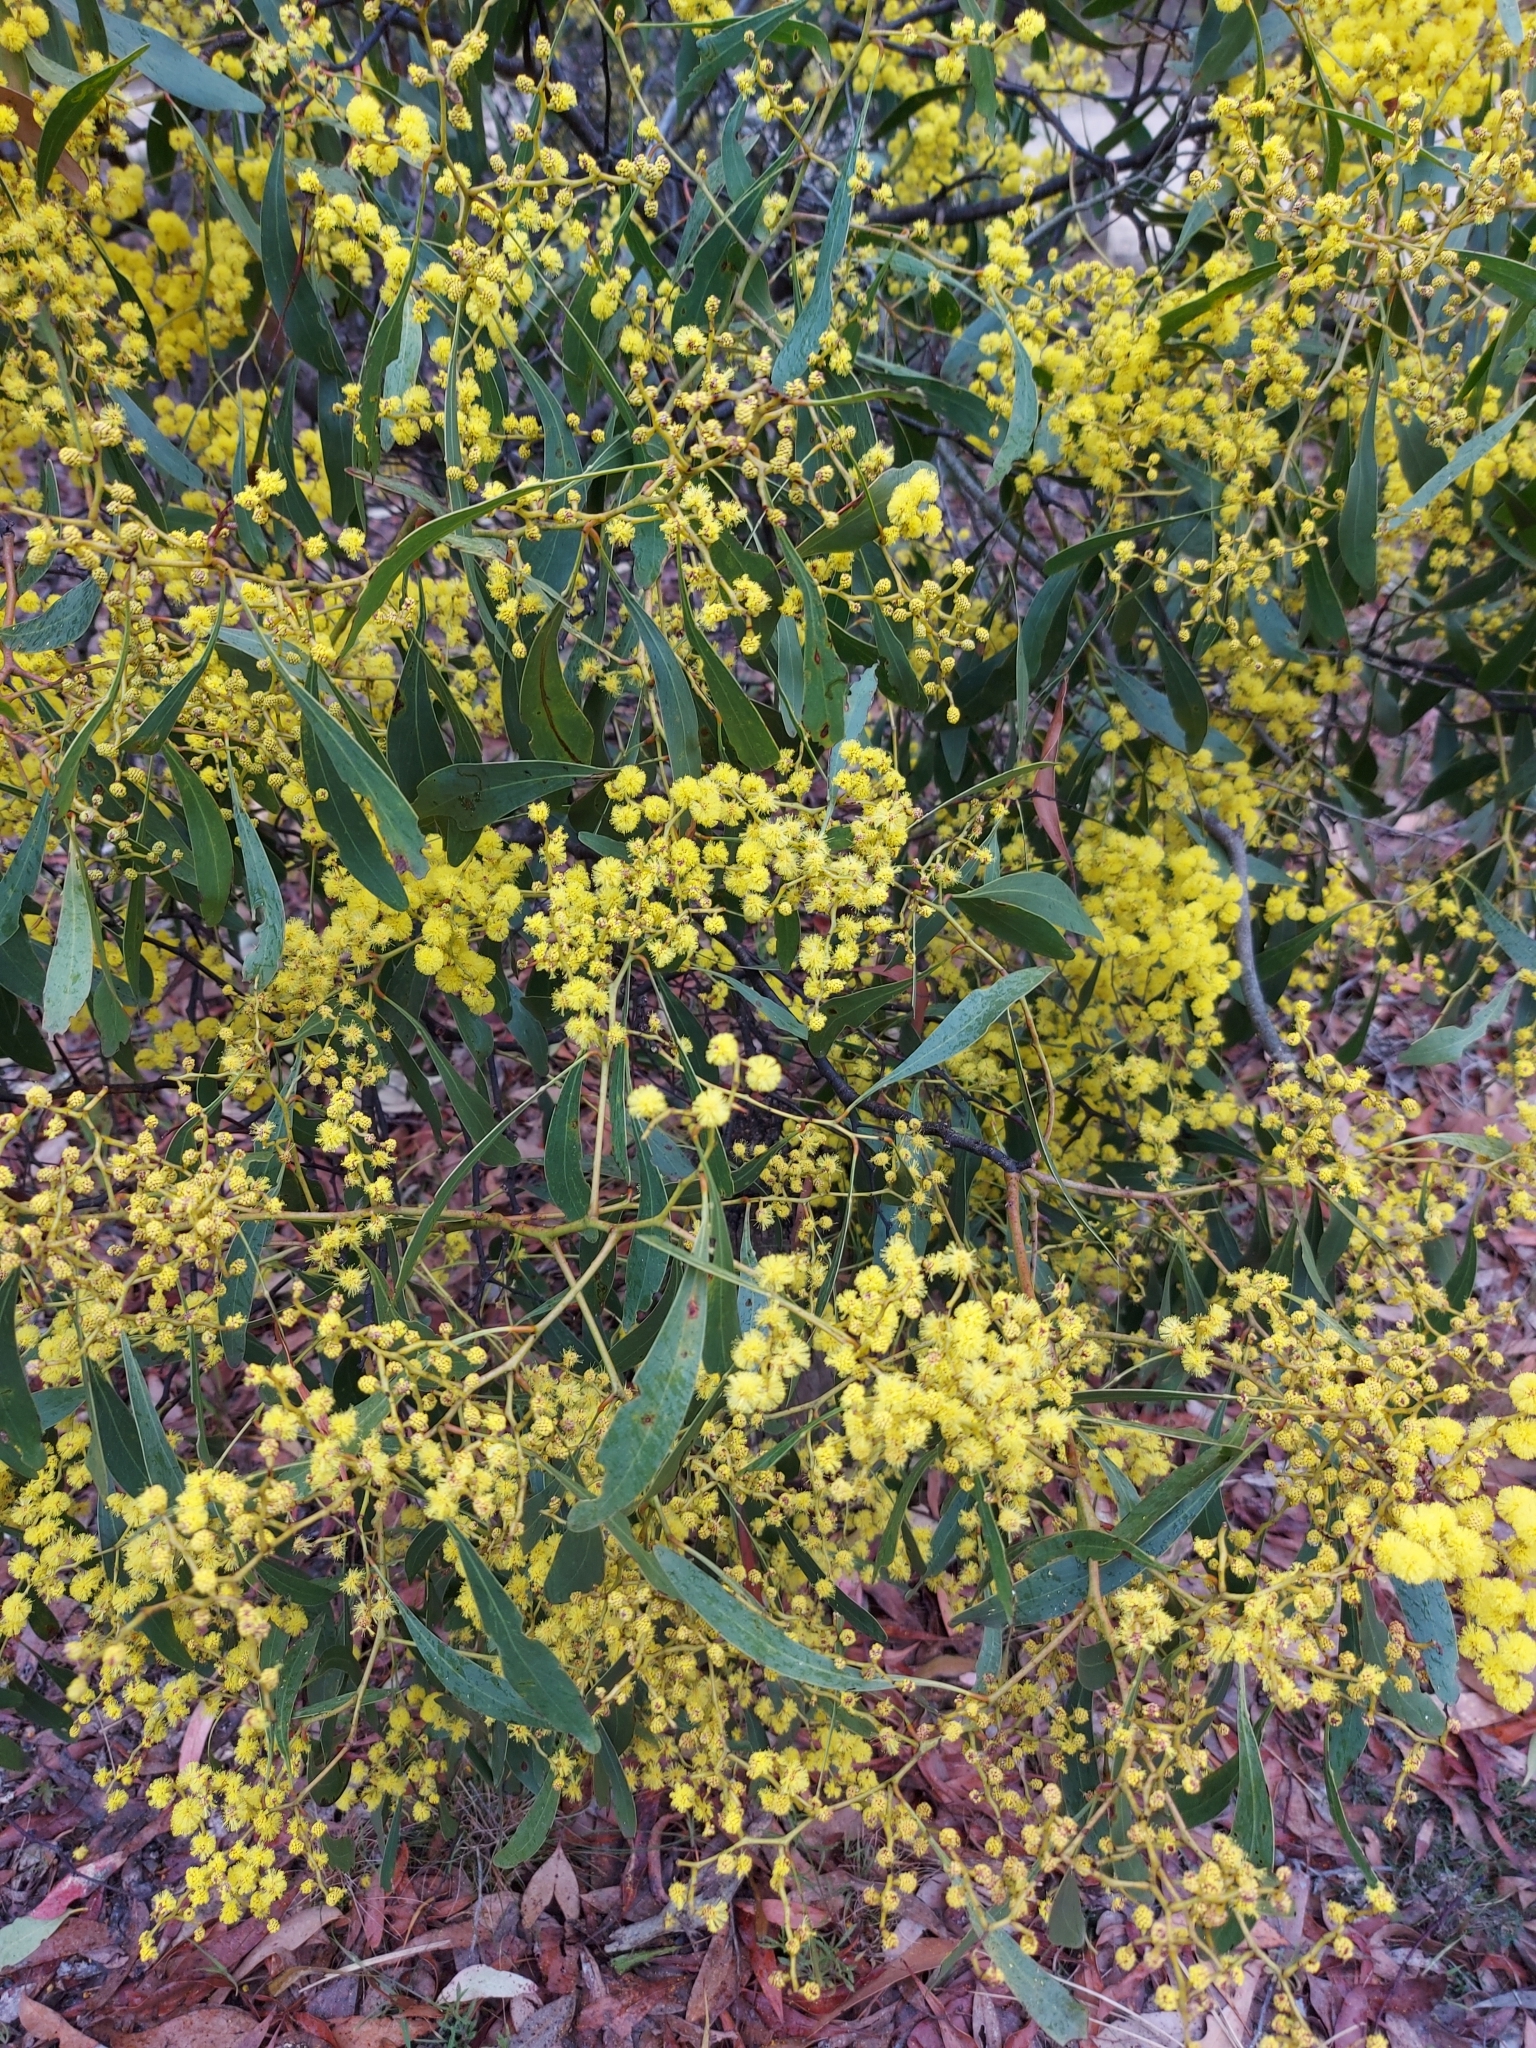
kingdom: Plantae
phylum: Tracheophyta
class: Magnoliopsida
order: Fabales
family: Fabaceae
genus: Acacia
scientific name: Acacia pycnantha
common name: Golden wattle
